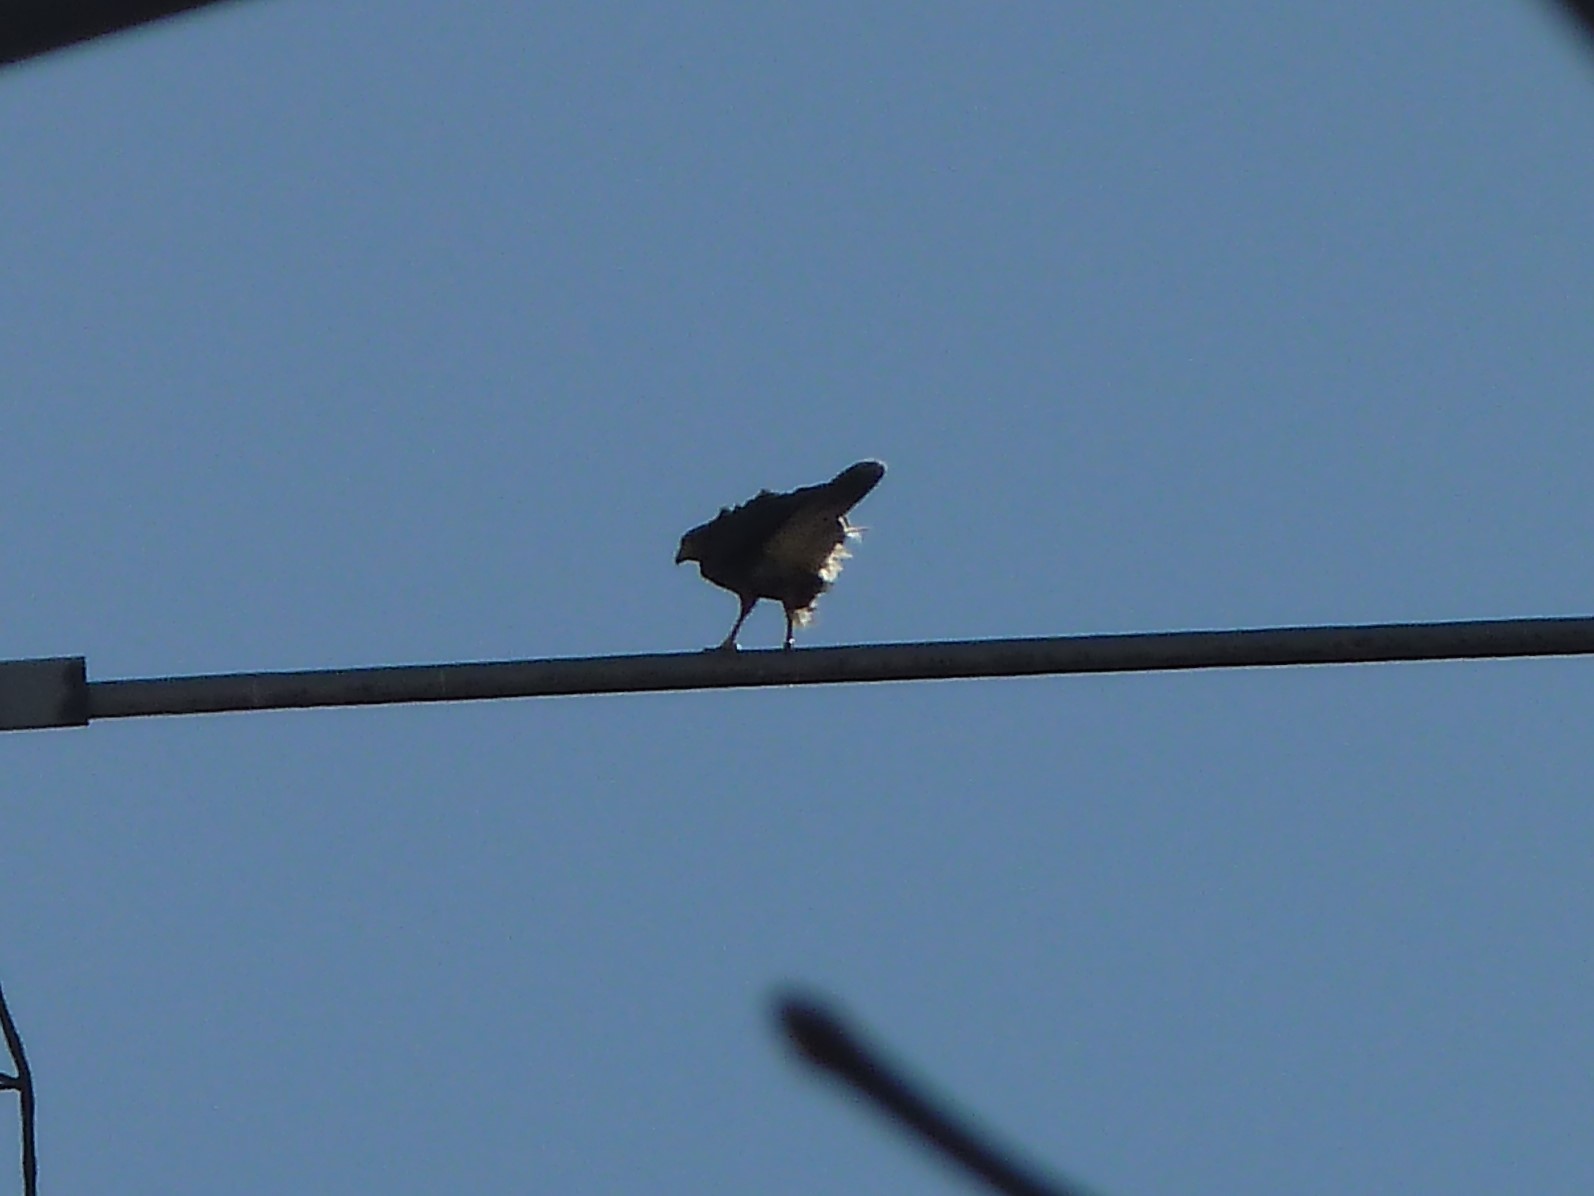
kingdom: Animalia
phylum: Chordata
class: Aves
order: Accipitriformes
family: Accipitridae
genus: Parabuteo
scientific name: Parabuteo unicinctus
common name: Harris's hawk
